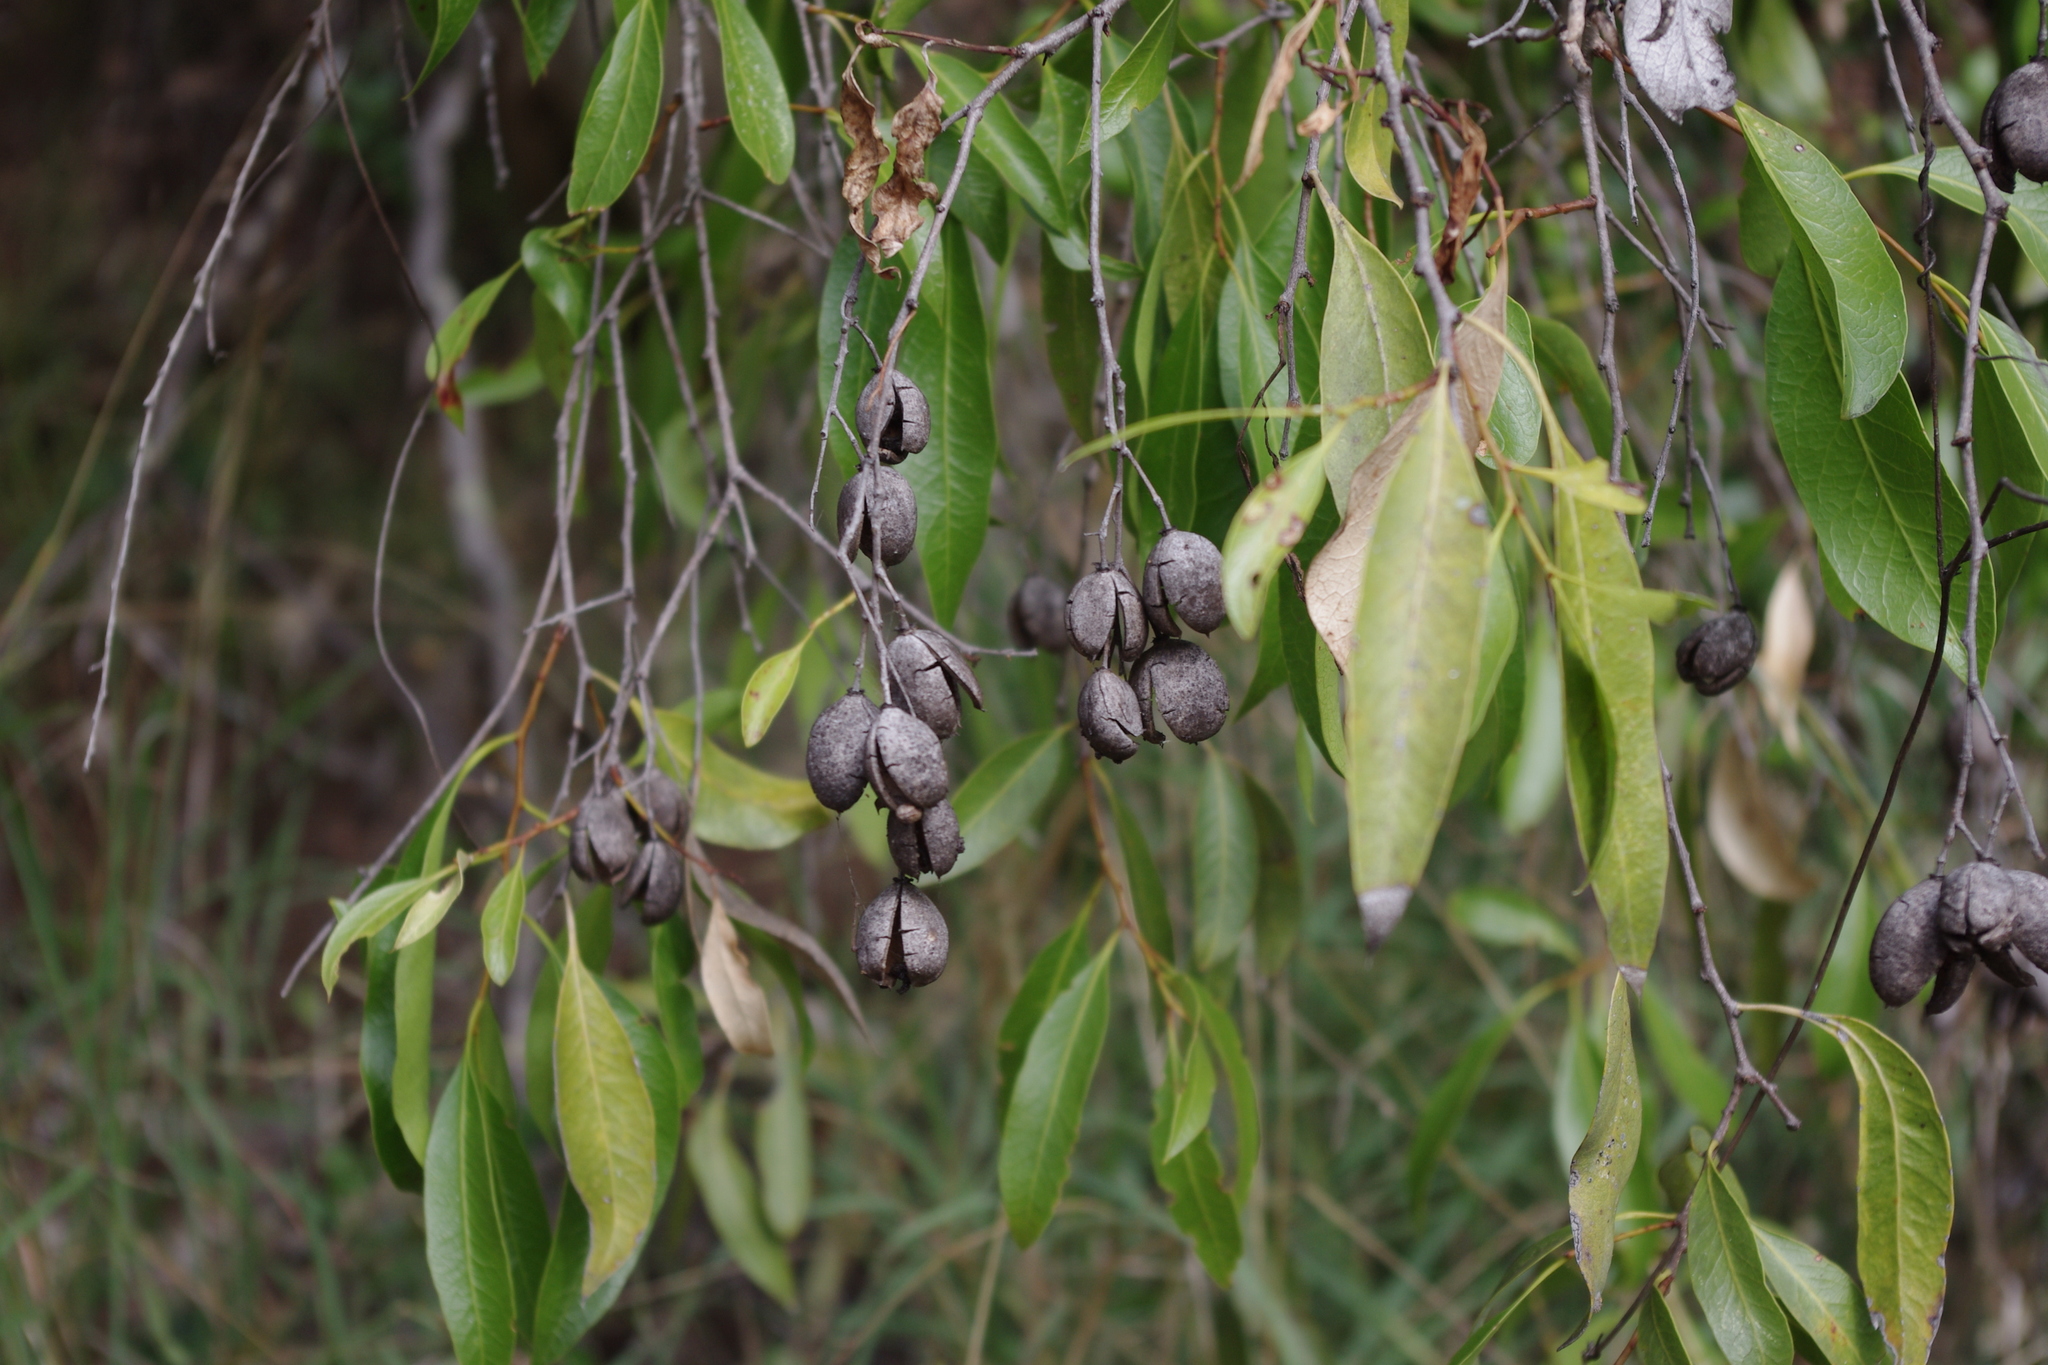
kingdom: Plantae
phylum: Tracheophyta
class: Magnoliopsida
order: Celastrales
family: Celastraceae
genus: Denhamia
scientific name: Denhamia oleaster
